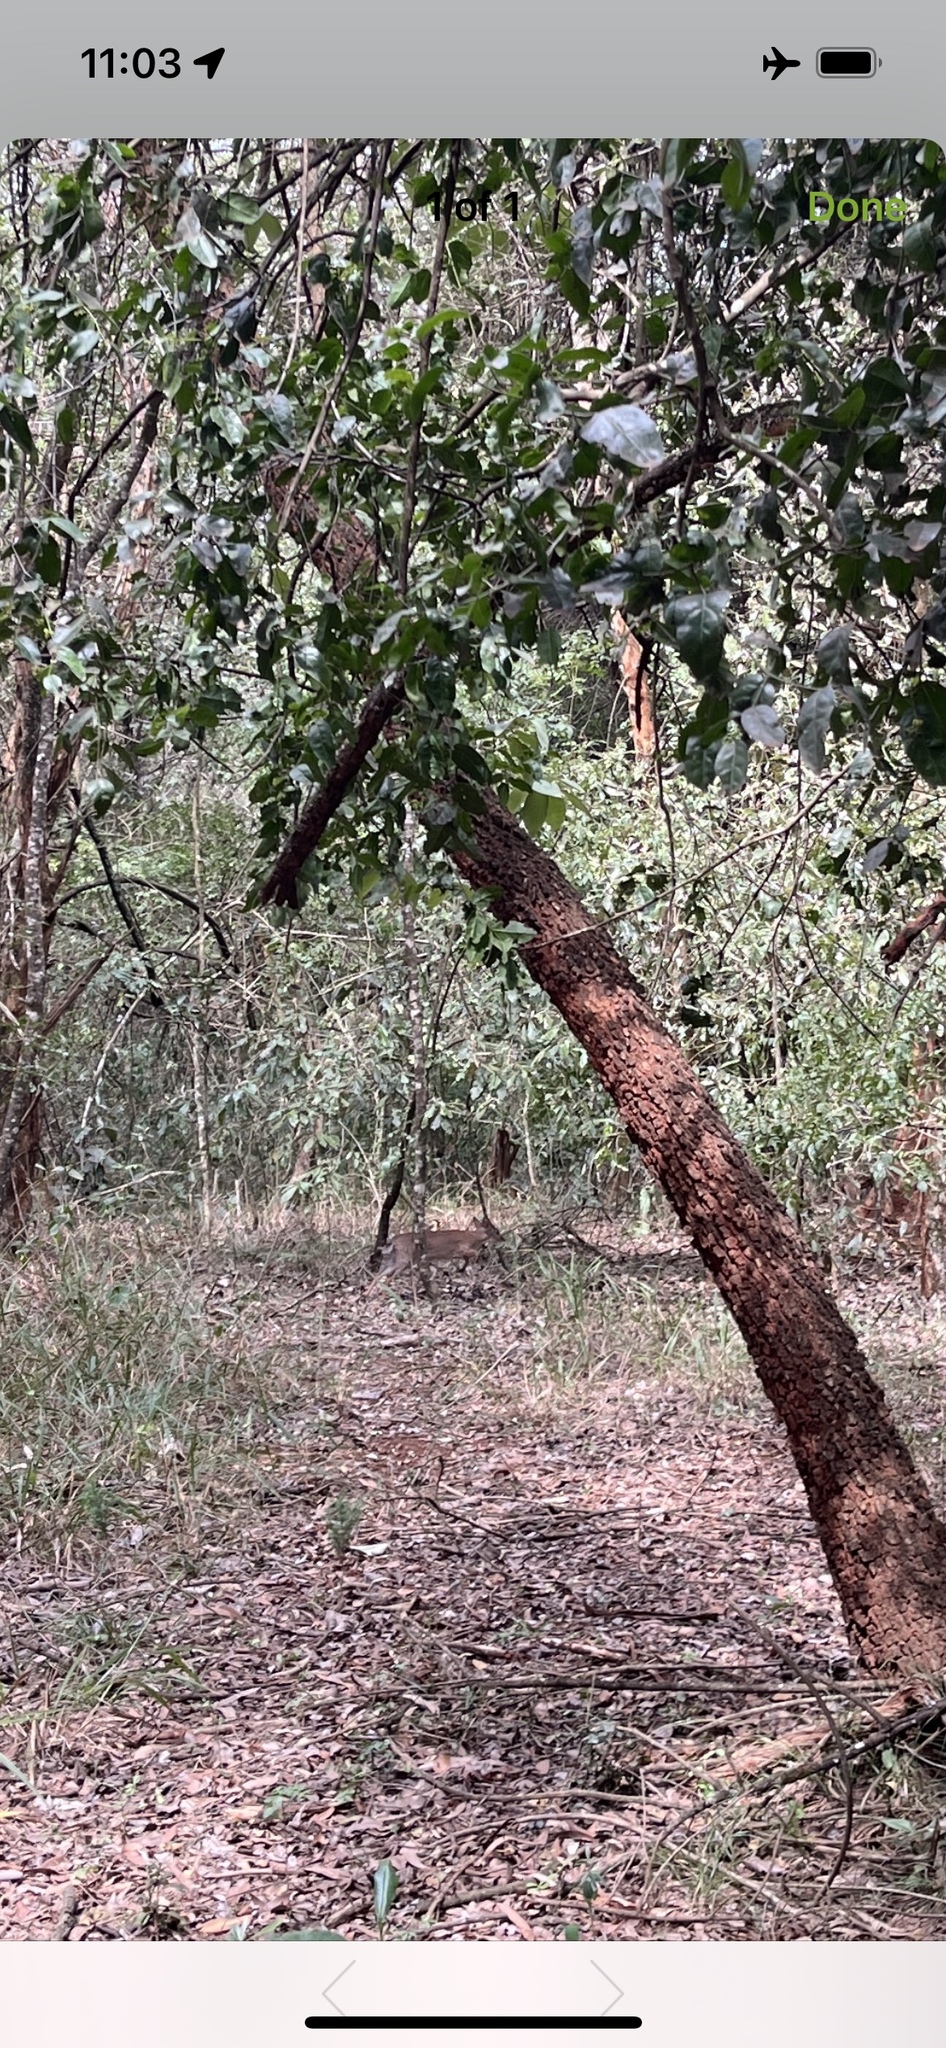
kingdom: Animalia
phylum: Chordata
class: Mammalia
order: Artiodactyla
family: Bovidae
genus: Neotragus
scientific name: Neotragus moschatus
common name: Suni
